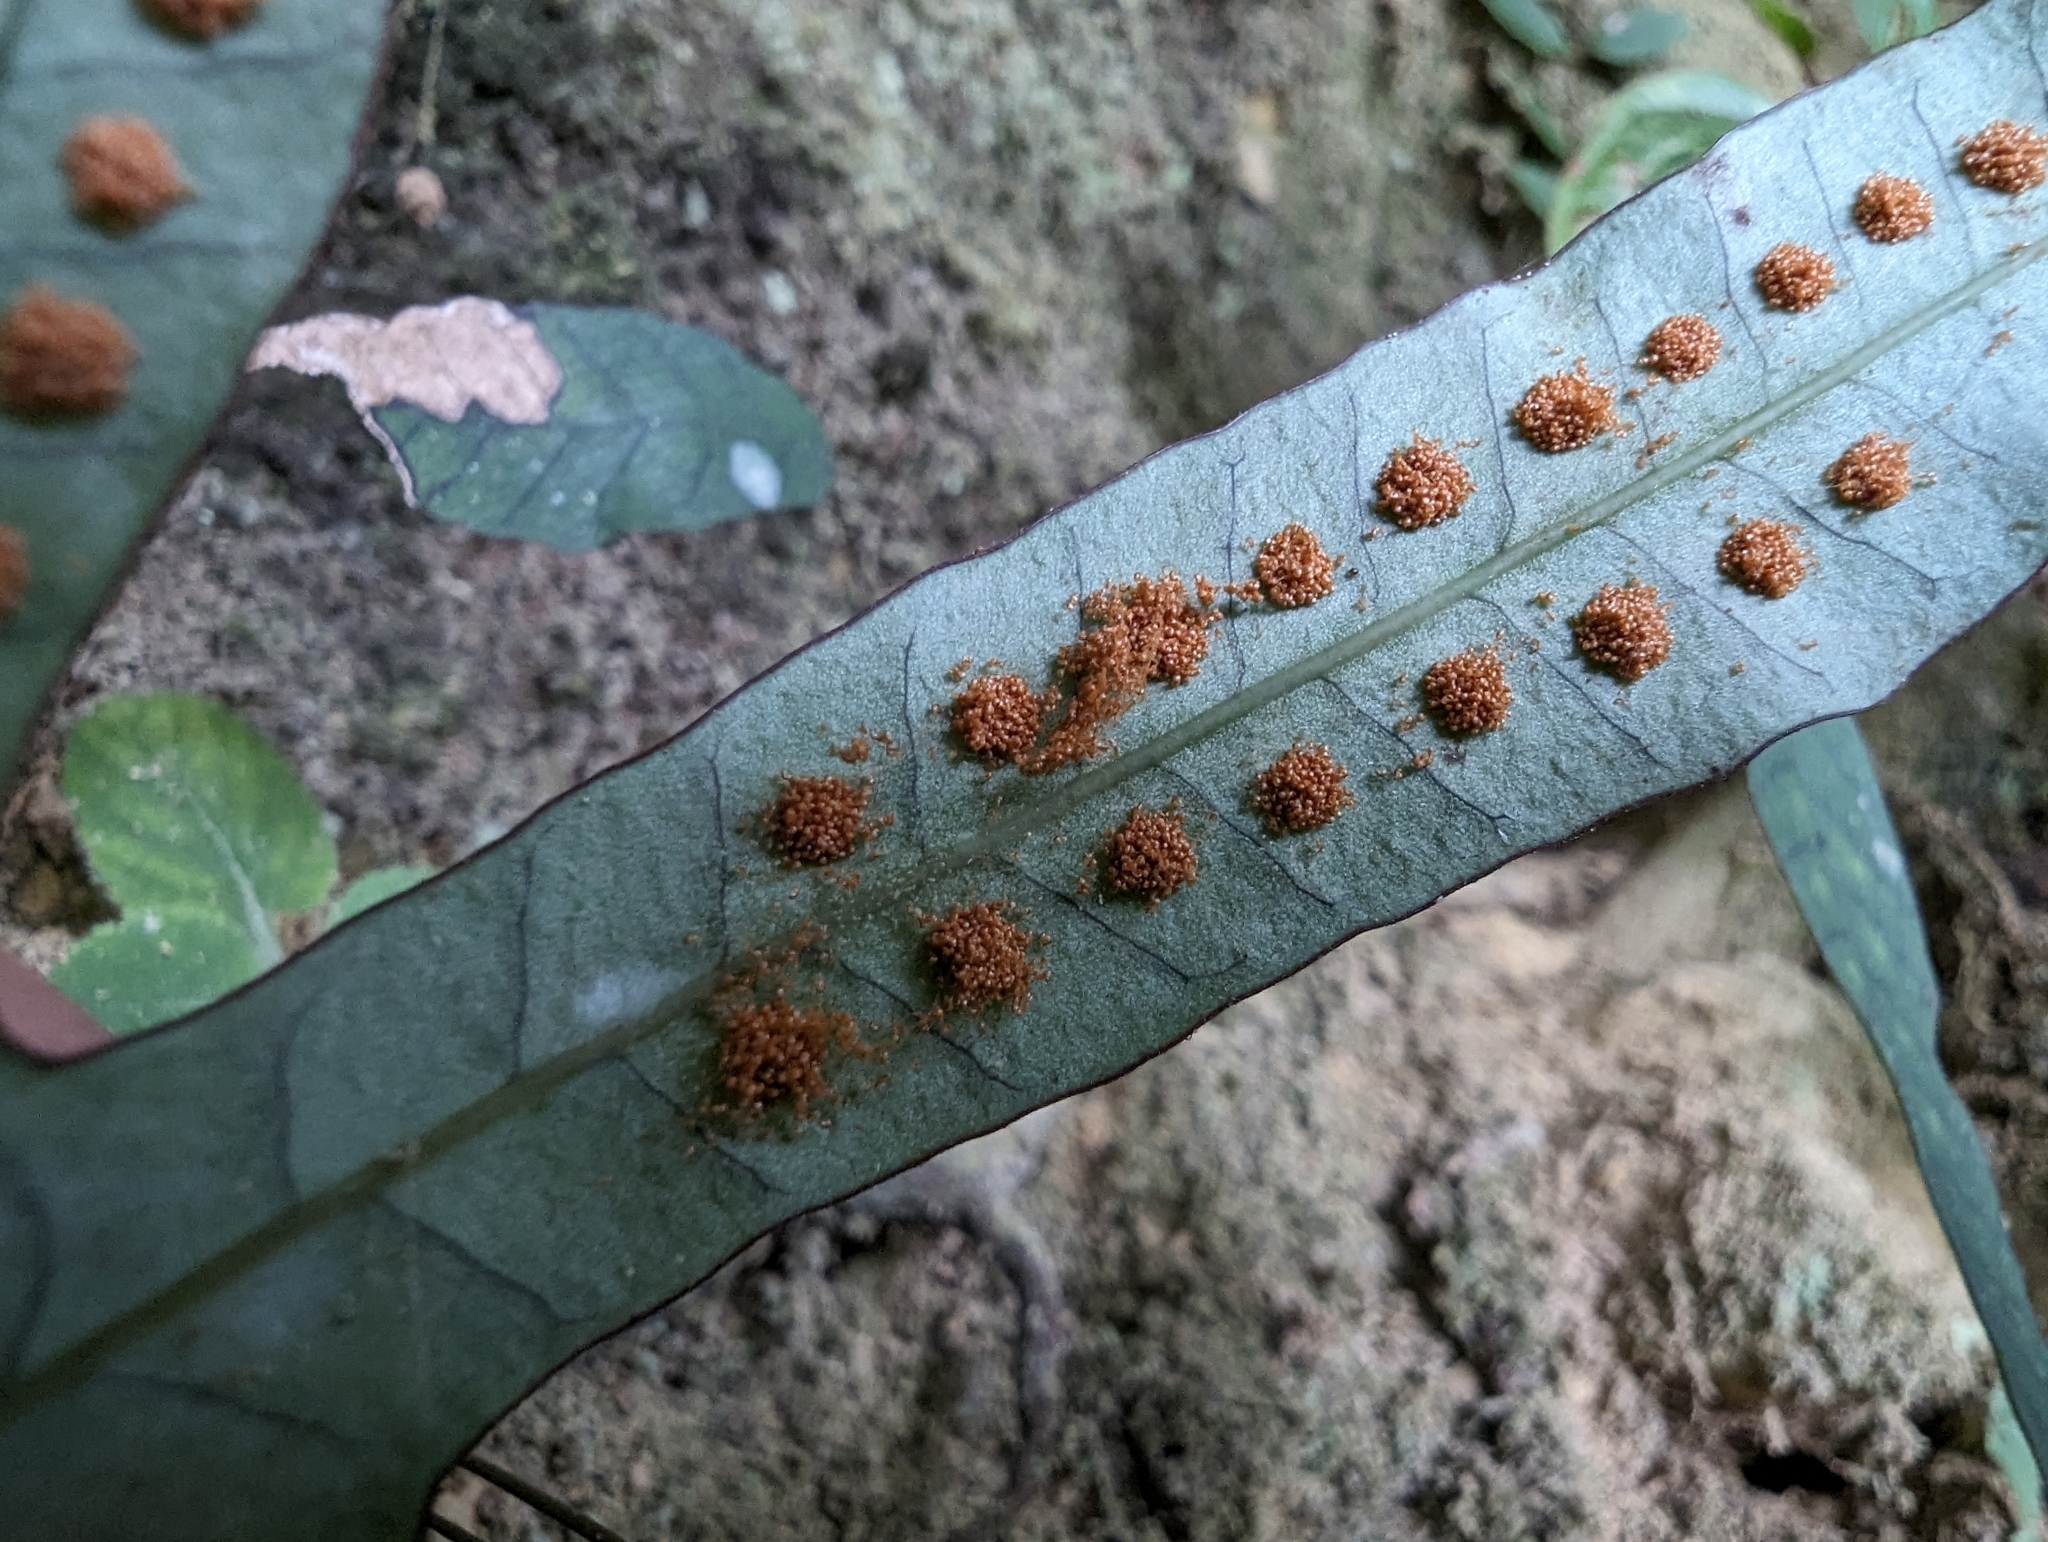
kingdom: Plantae
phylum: Tracheophyta
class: Polypodiopsida
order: Polypodiales
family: Polypodiaceae
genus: Selliguea
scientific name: Selliguea hastata
